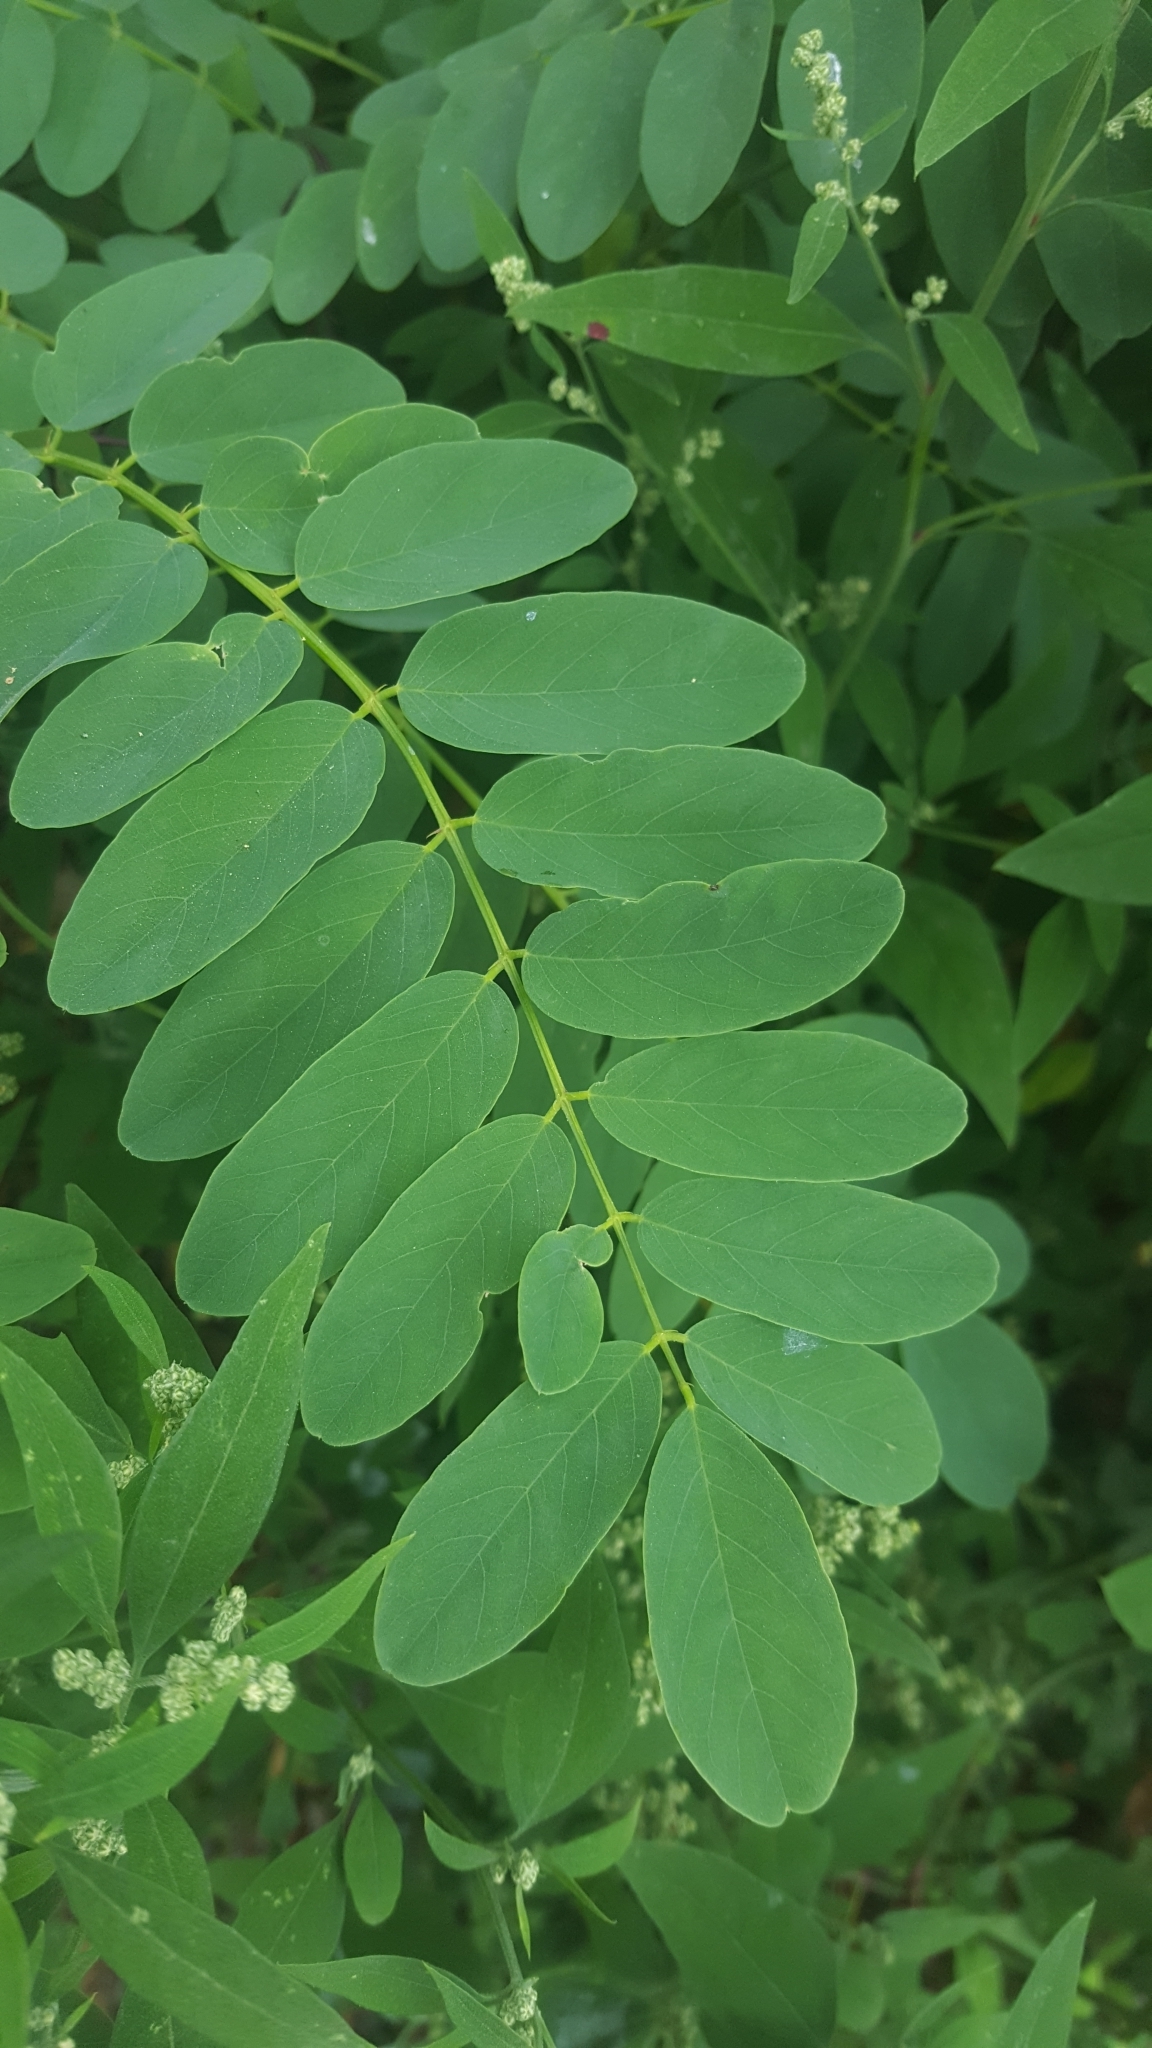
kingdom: Plantae
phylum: Tracheophyta
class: Magnoliopsida
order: Fabales
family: Fabaceae
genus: Robinia
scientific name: Robinia pseudoacacia
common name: Black locust
